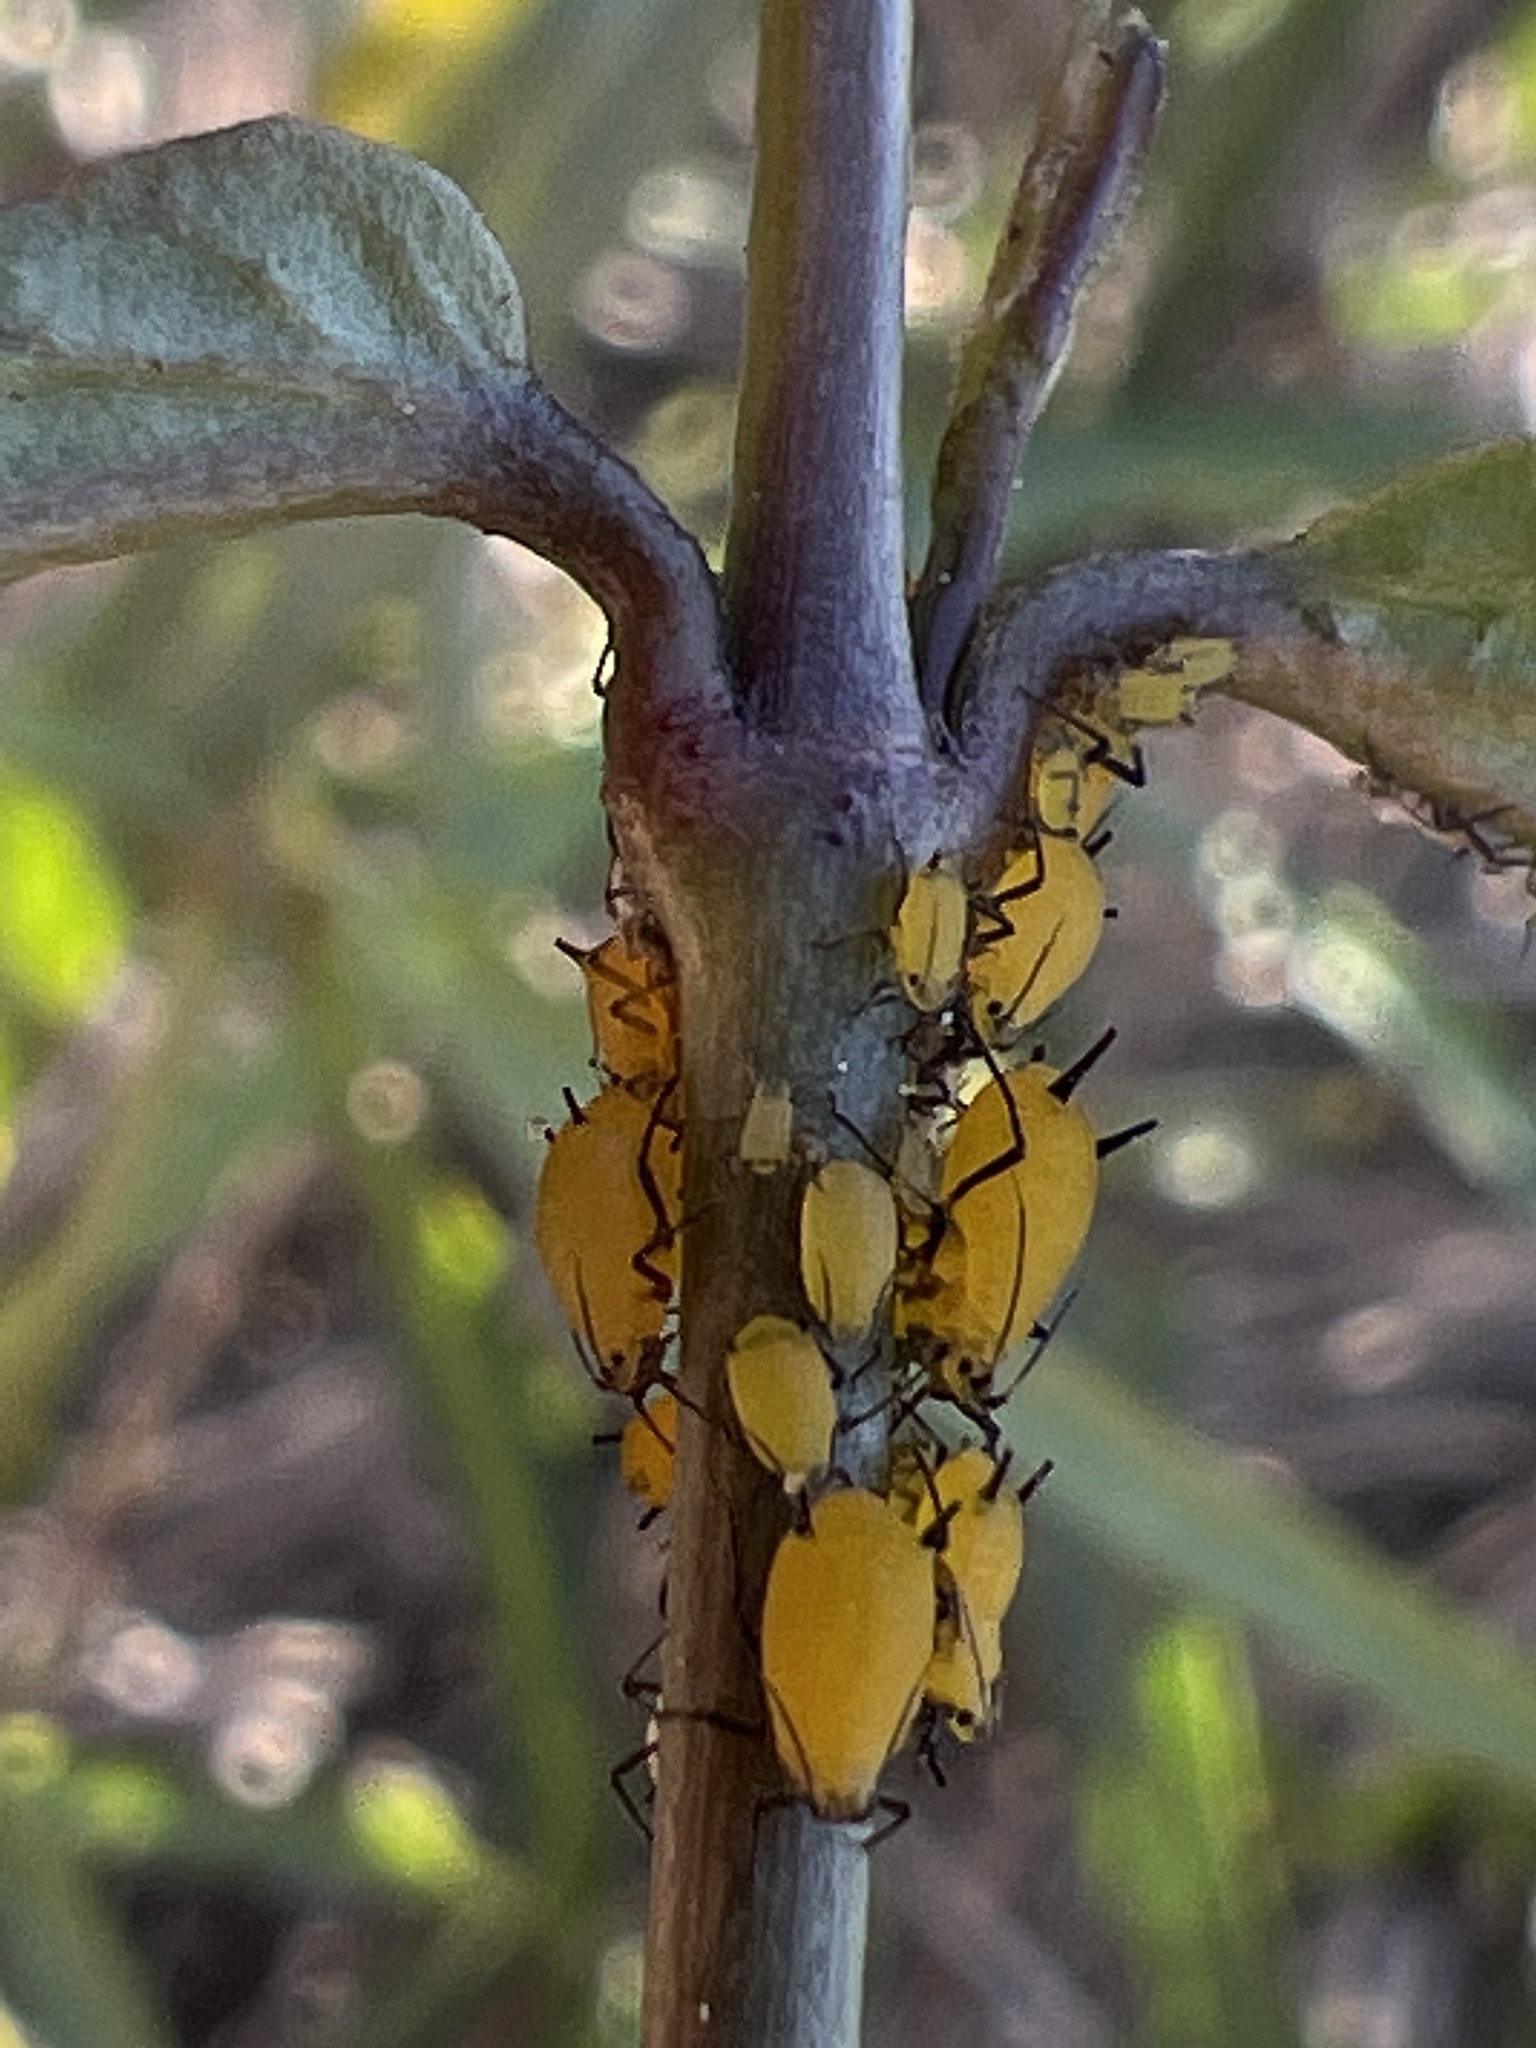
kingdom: Animalia
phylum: Arthropoda
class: Insecta
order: Hemiptera
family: Aphididae
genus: Aphis
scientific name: Aphis nerii
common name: Oleander aphid
